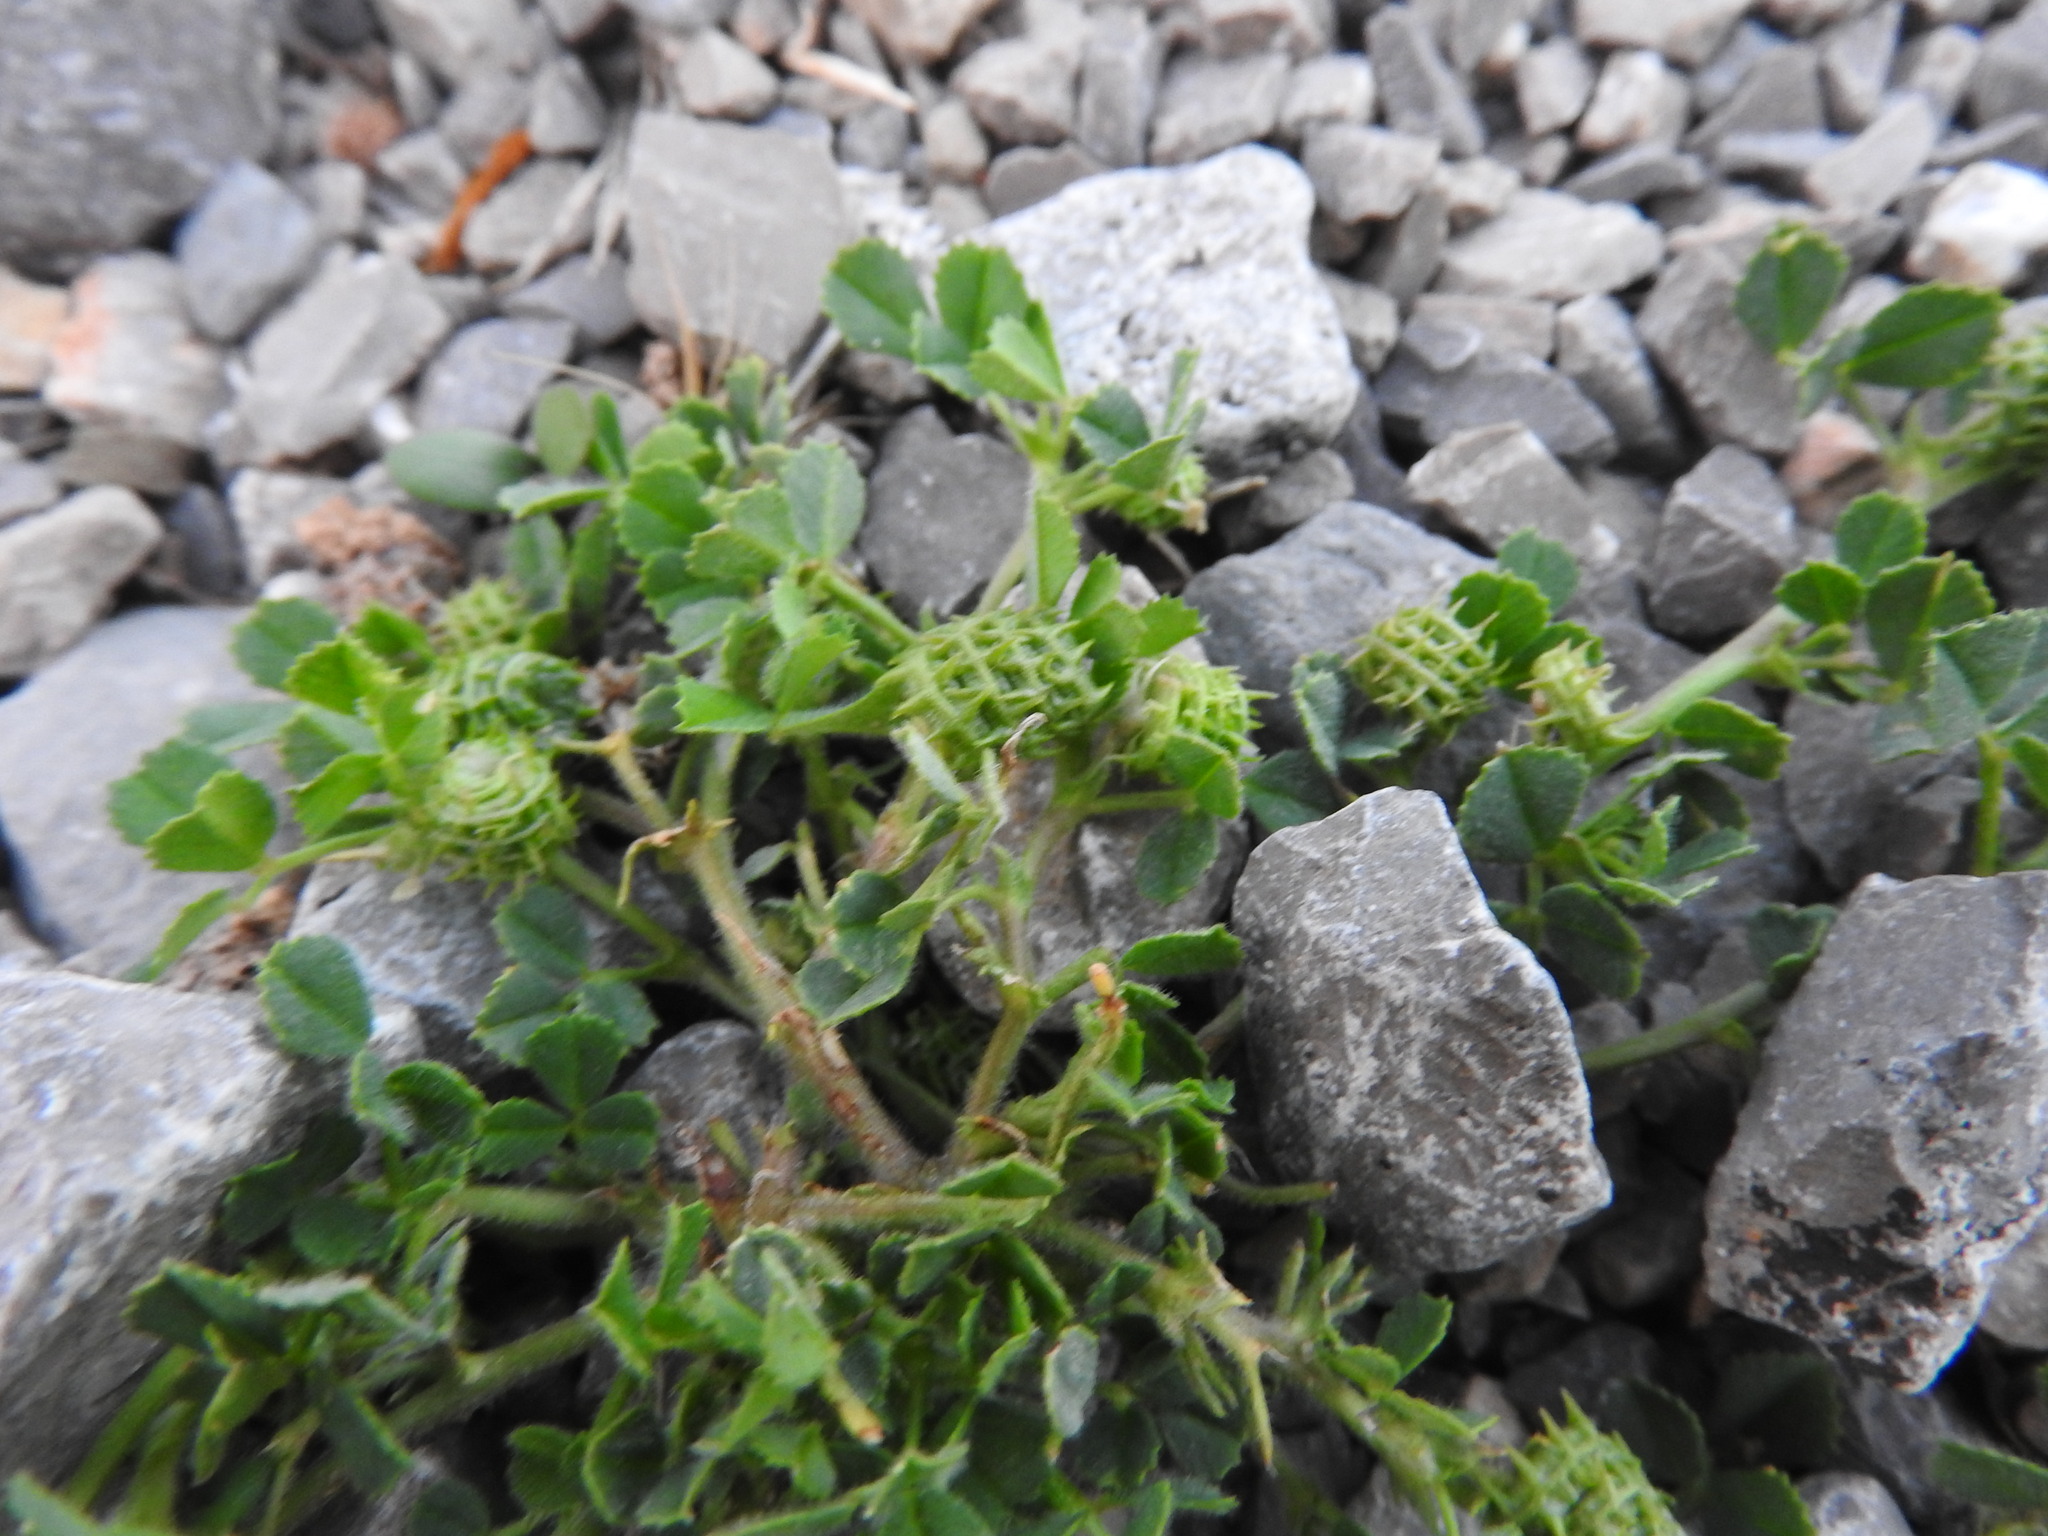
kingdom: Plantae
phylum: Tracheophyta
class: Magnoliopsida
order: Fabales
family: Fabaceae
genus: Medicago
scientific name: Medicago truncatula
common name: Strong-spined medick
